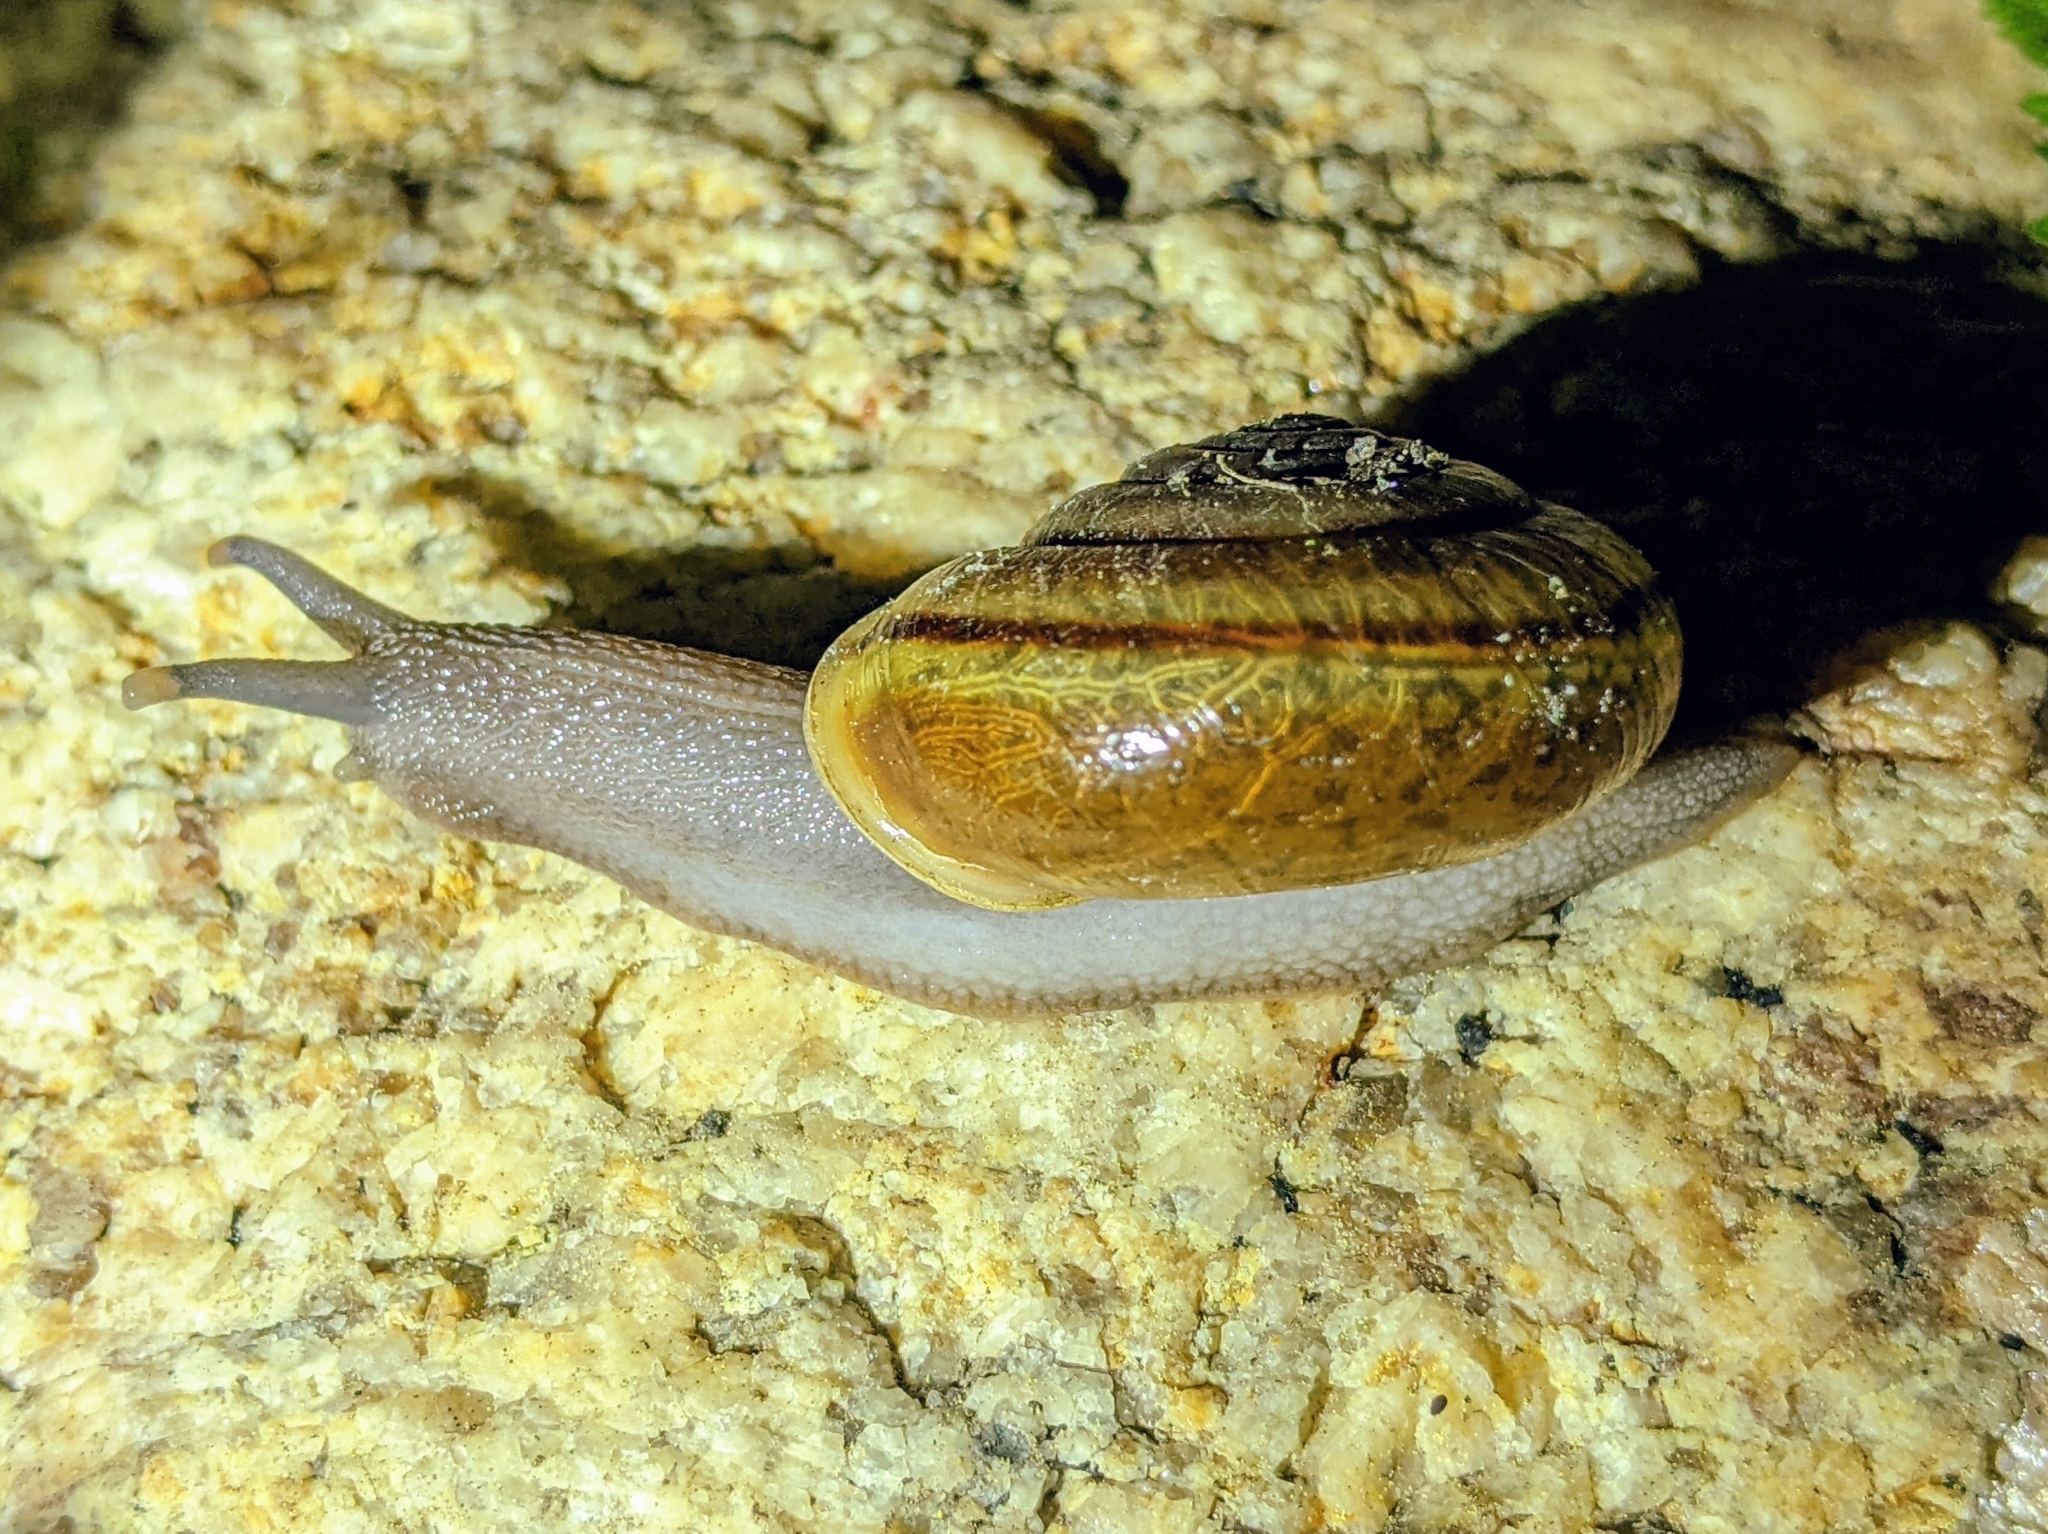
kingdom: Animalia
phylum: Mollusca
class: Gastropoda
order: Stylommatophora
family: Xanthonychidae
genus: Helminthoglypta
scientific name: Helminthoglypta benitoensis
